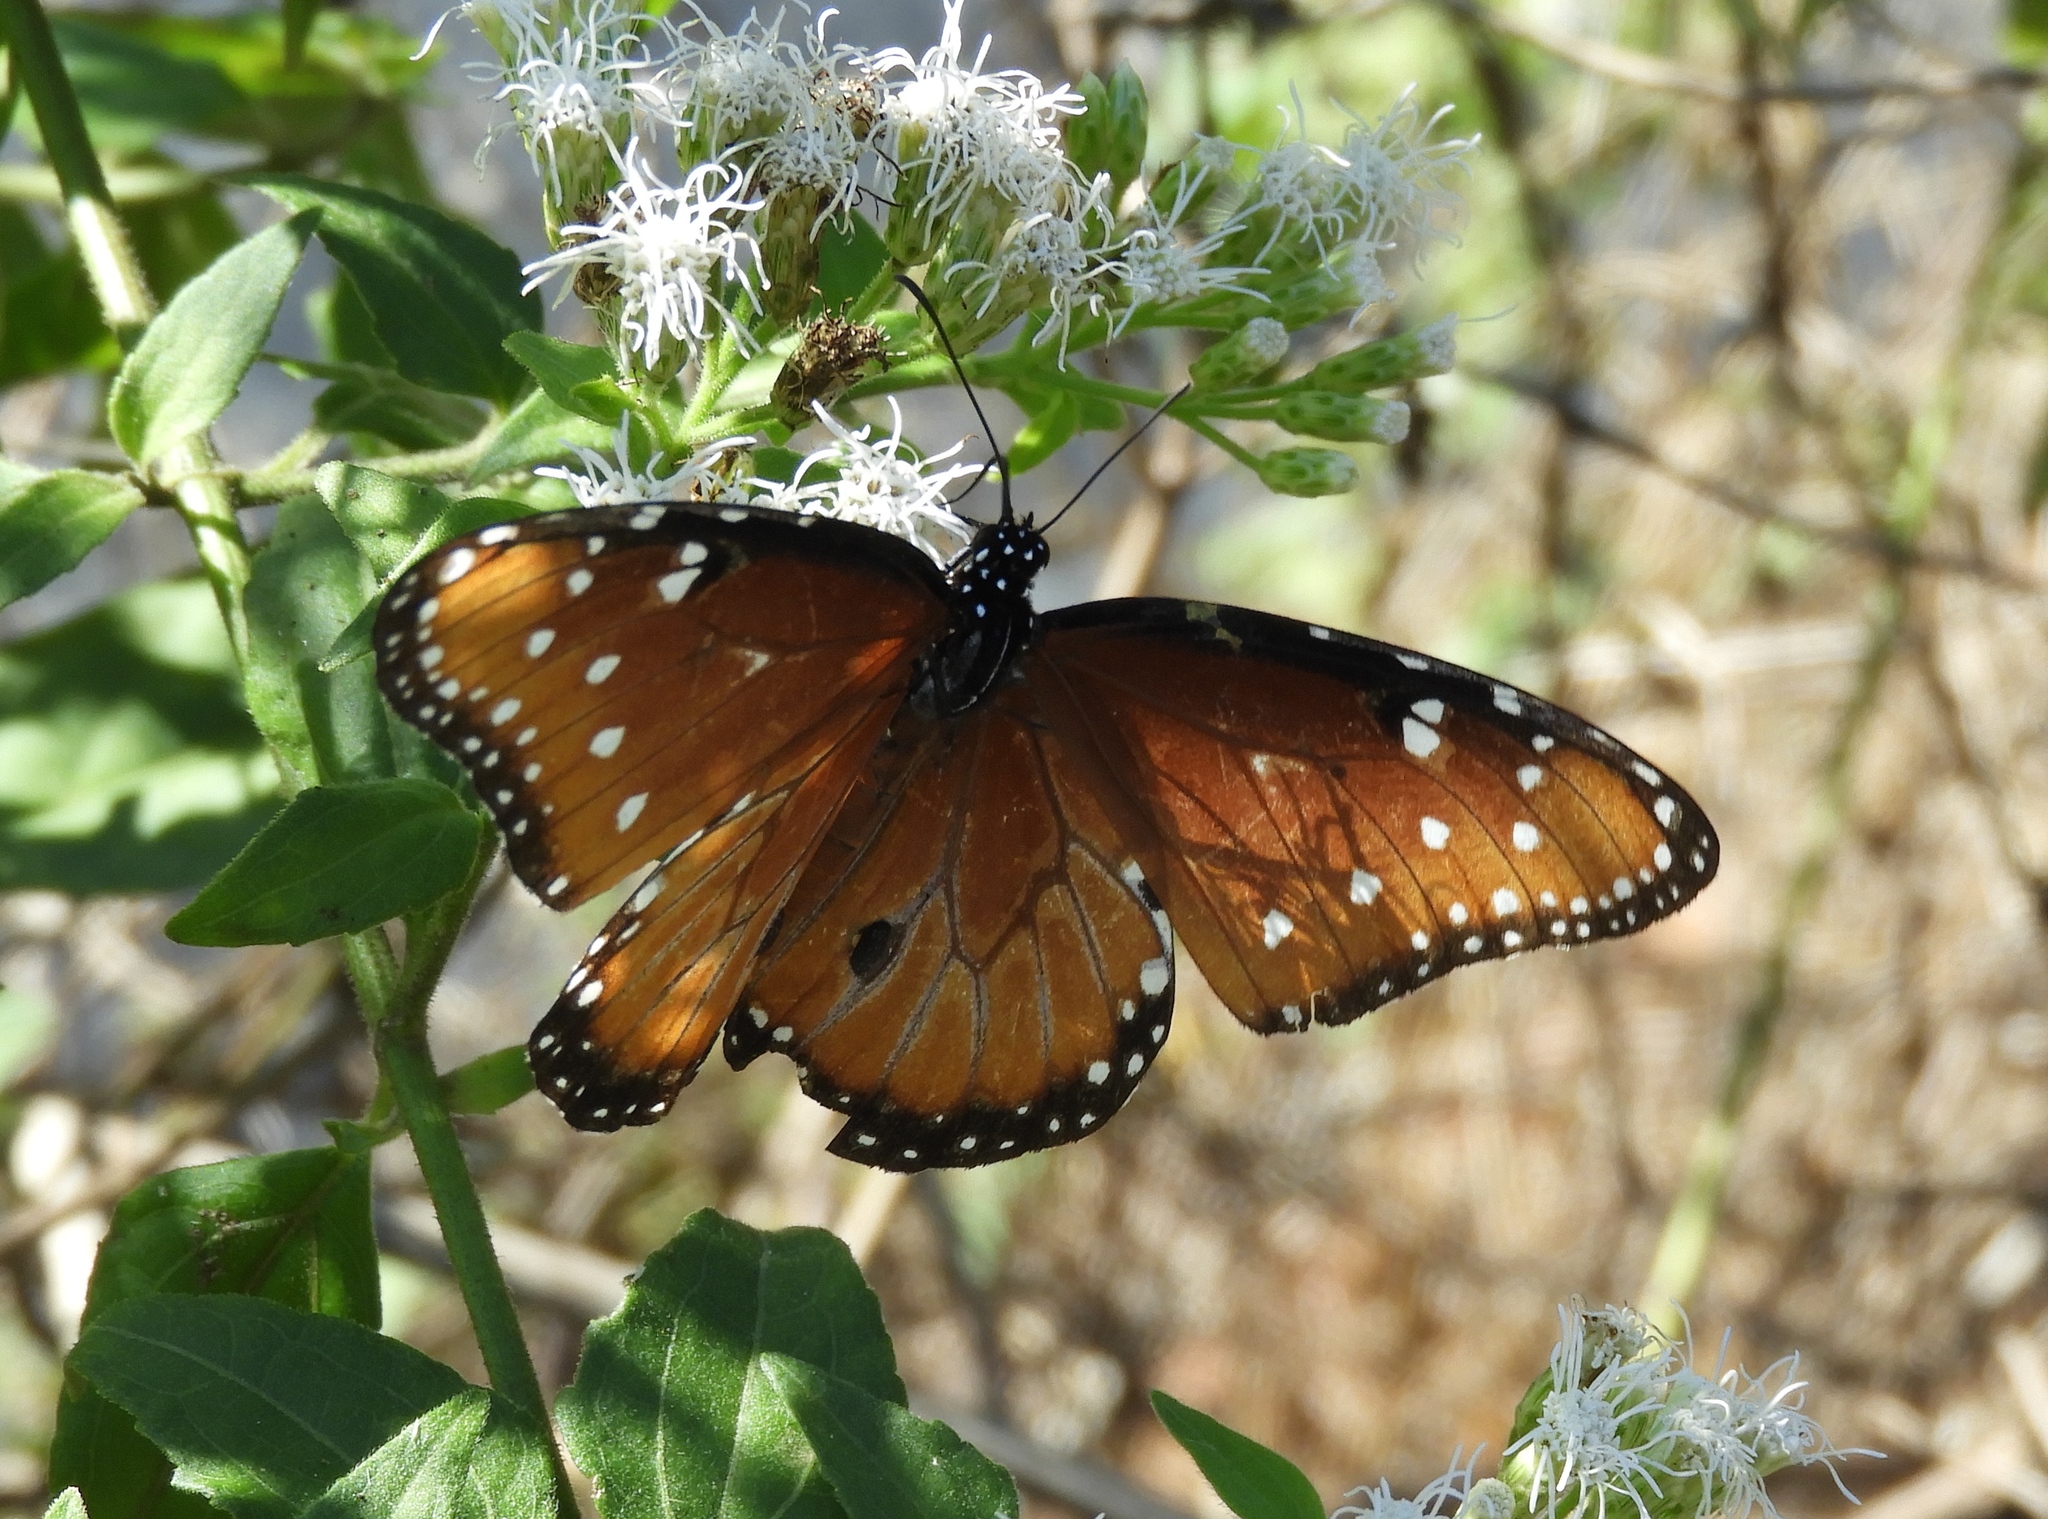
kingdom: Animalia
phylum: Arthropoda
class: Insecta
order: Lepidoptera
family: Nymphalidae
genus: Danaus
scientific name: Danaus gilippus
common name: Queen
